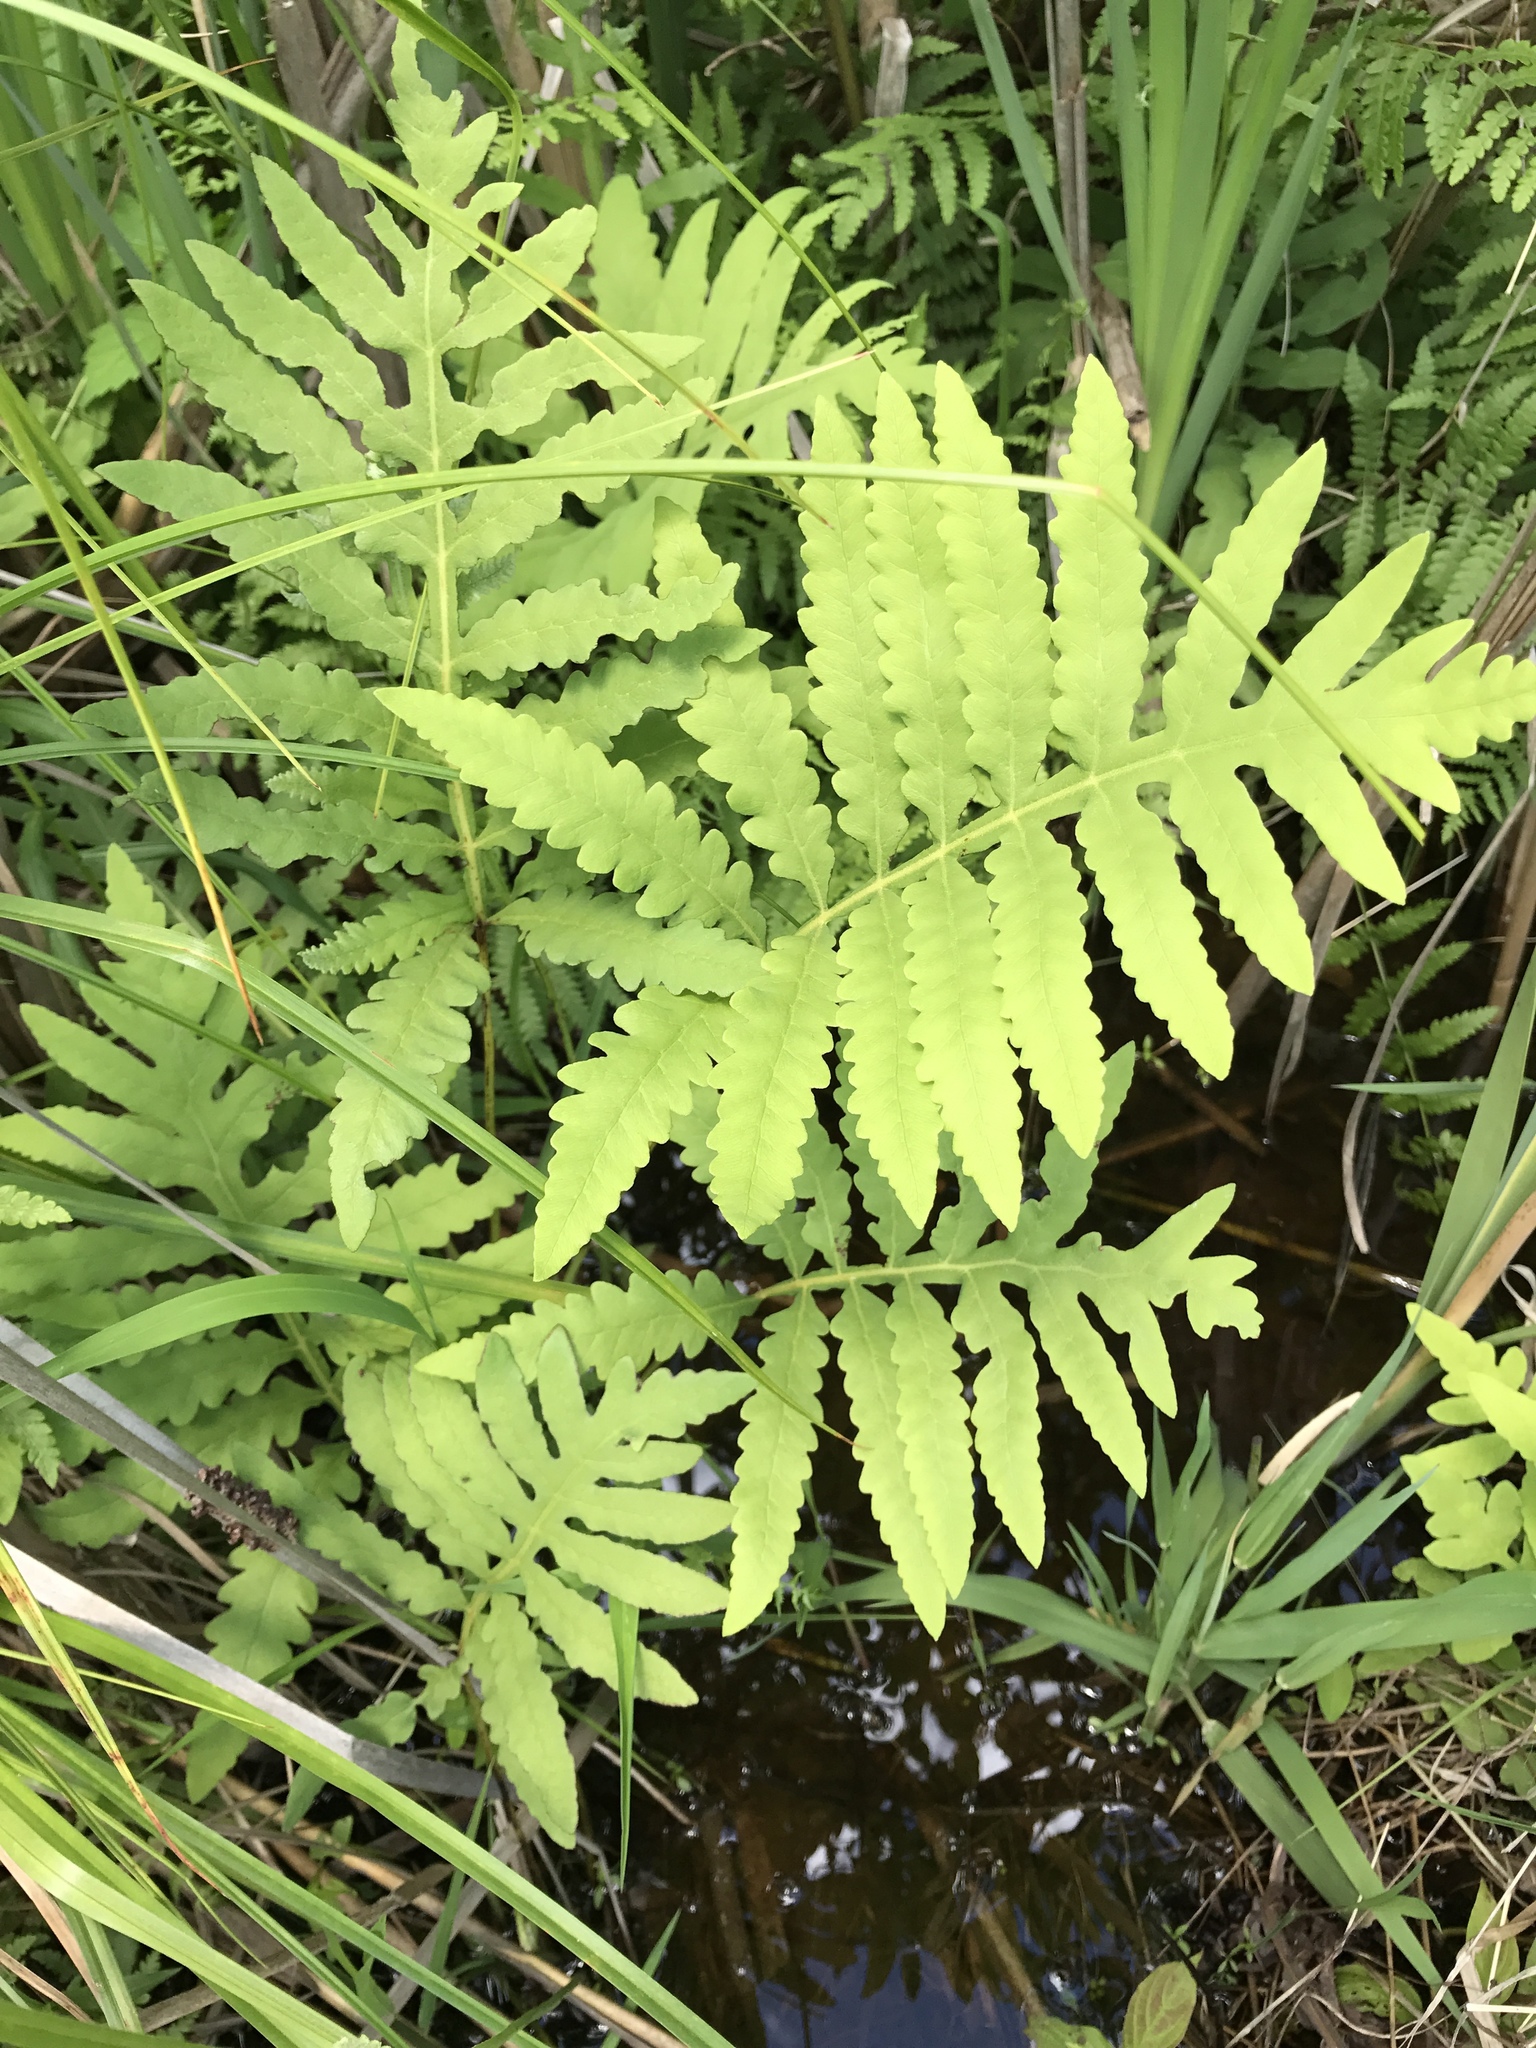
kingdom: Plantae
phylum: Tracheophyta
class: Polypodiopsida
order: Polypodiales
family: Onocleaceae
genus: Onoclea
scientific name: Onoclea sensibilis
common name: Sensitive fern
